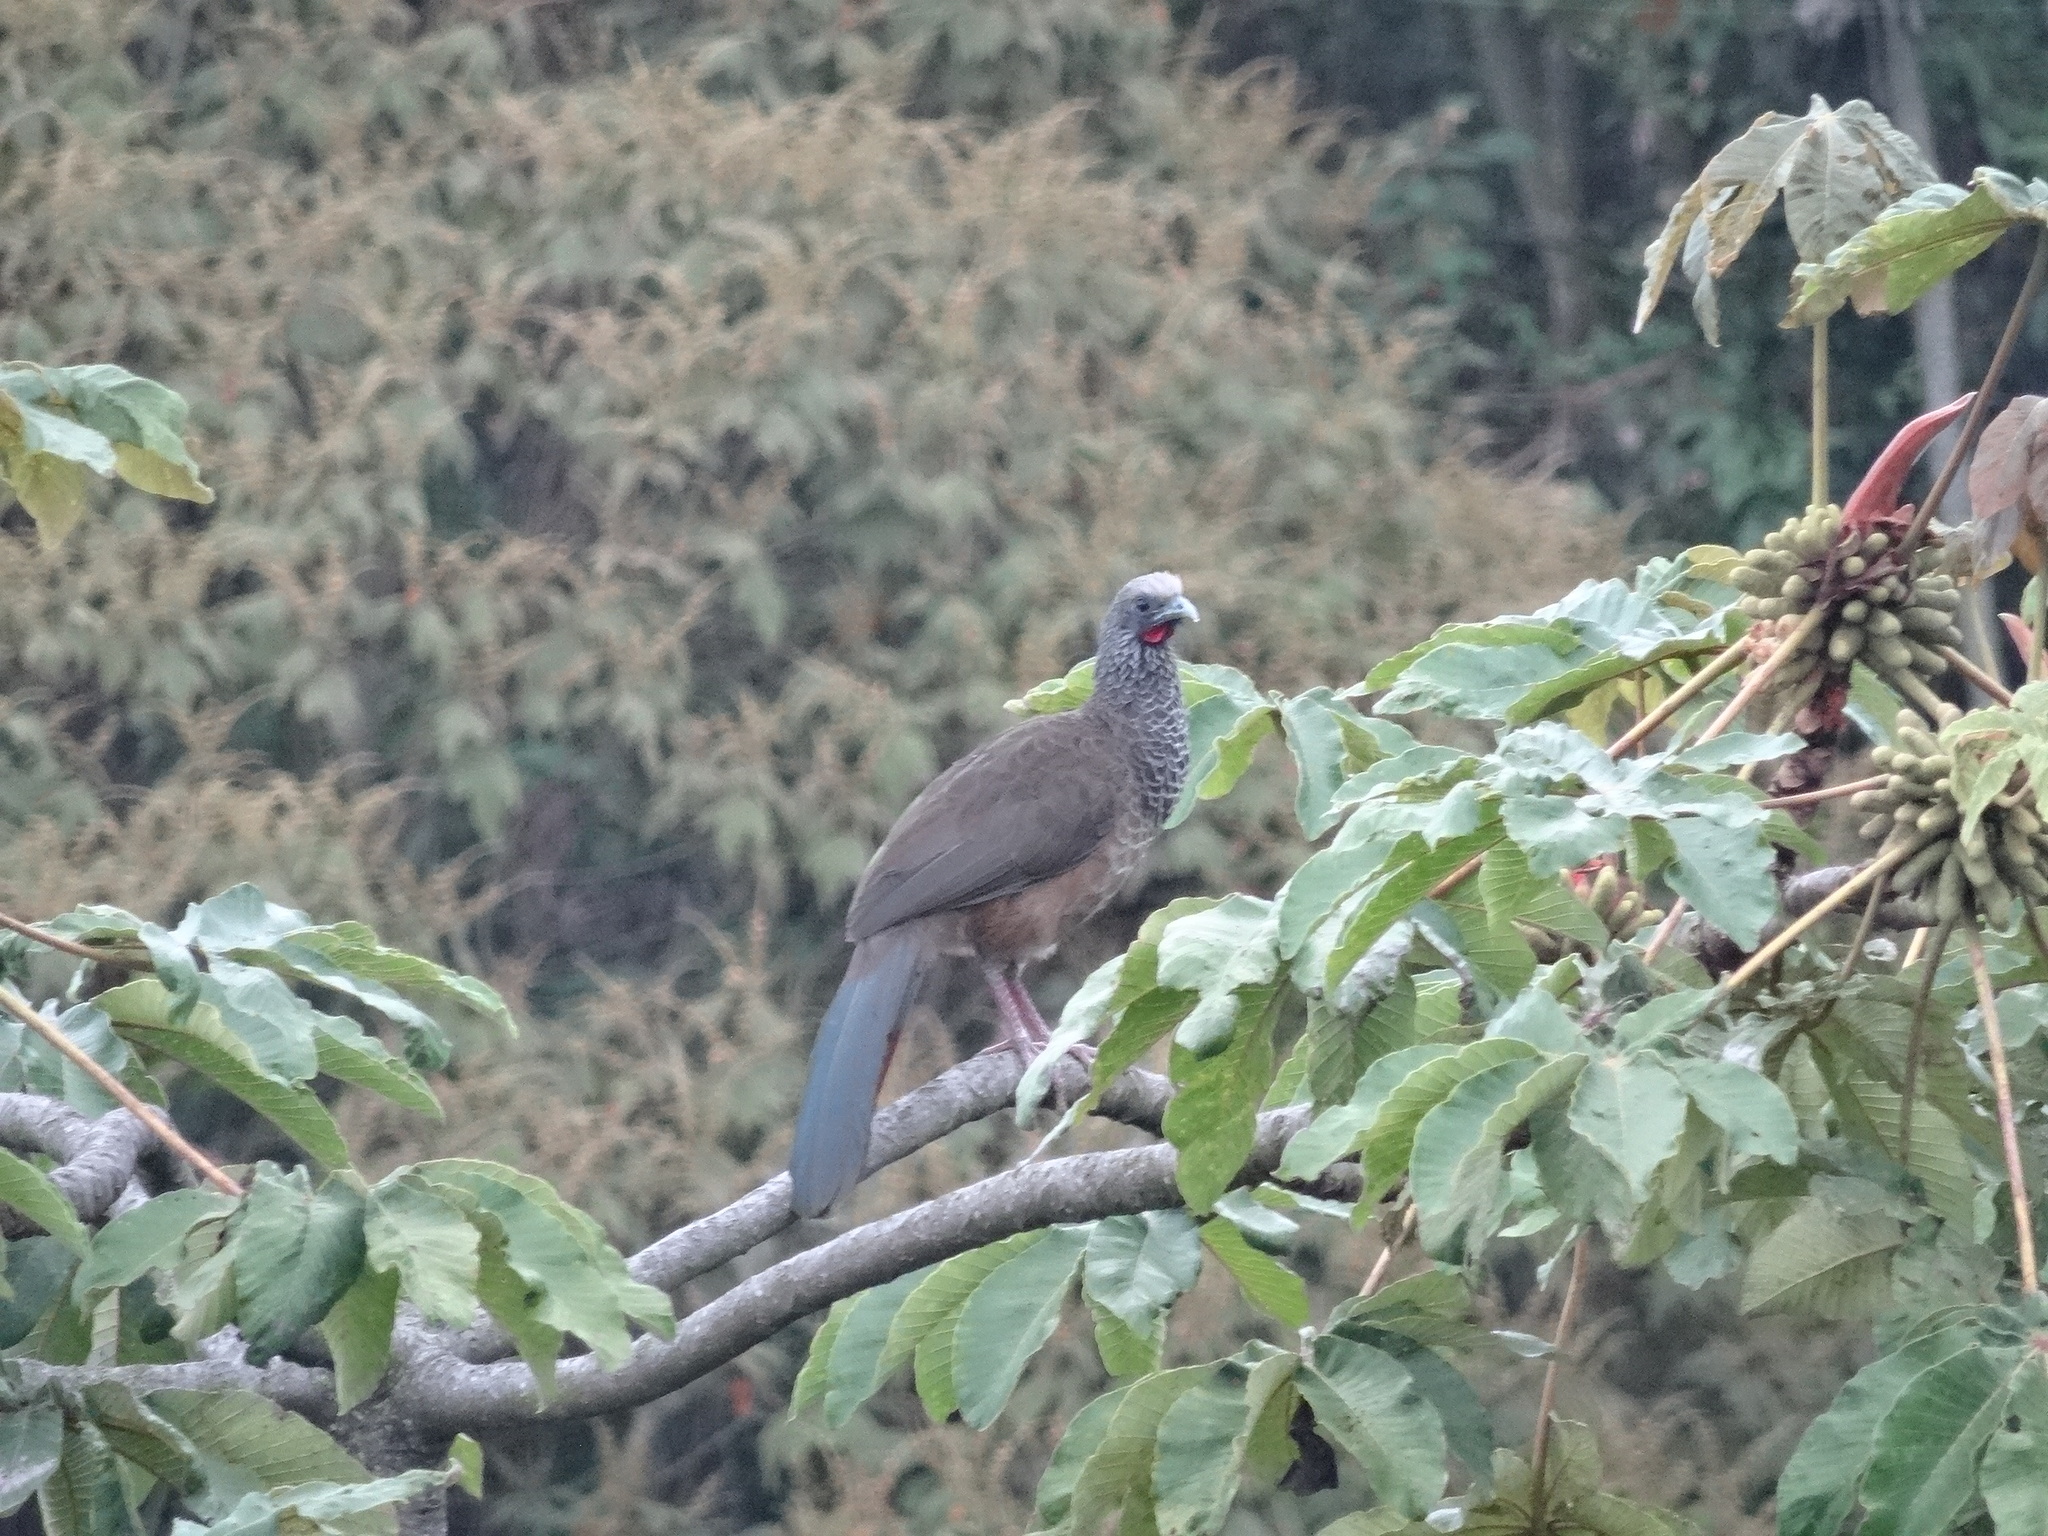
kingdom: Animalia
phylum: Chordata
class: Aves
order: Galliformes
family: Cracidae
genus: Ortalis
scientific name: Ortalis columbiana
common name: Colombian chachalaca
